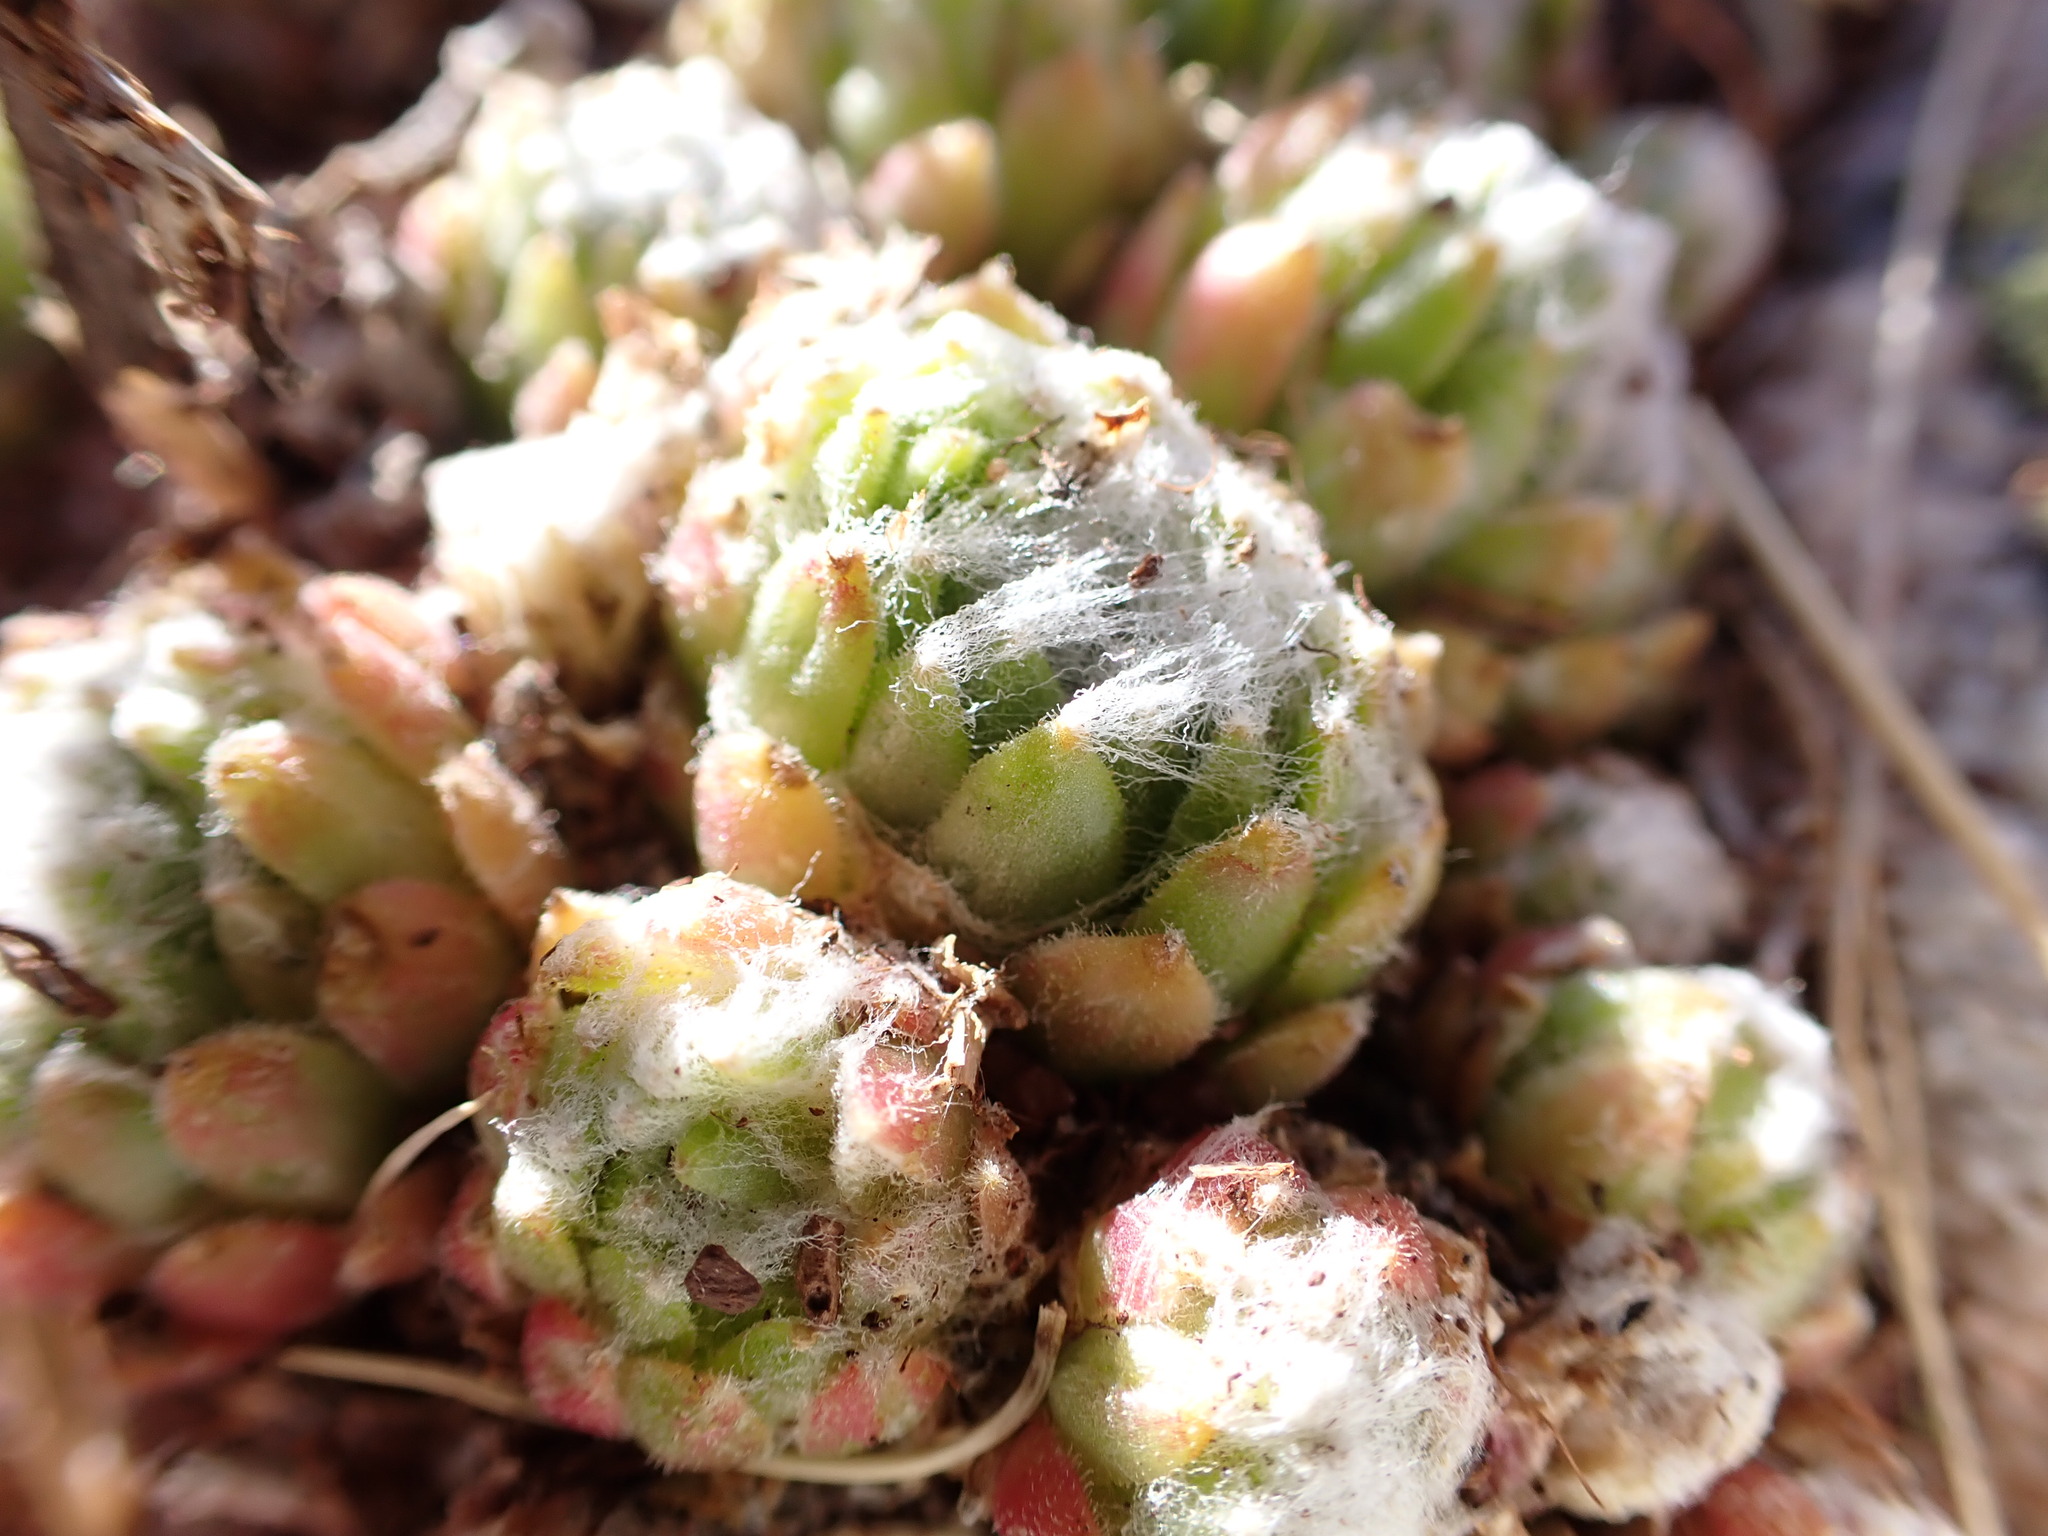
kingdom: Plantae
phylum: Tracheophyta
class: Magnoliopsida
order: Saxifragales
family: Crassulaceae
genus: Sempervivum
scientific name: Sempervivum arachnoideum
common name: Cobweb house-leek
